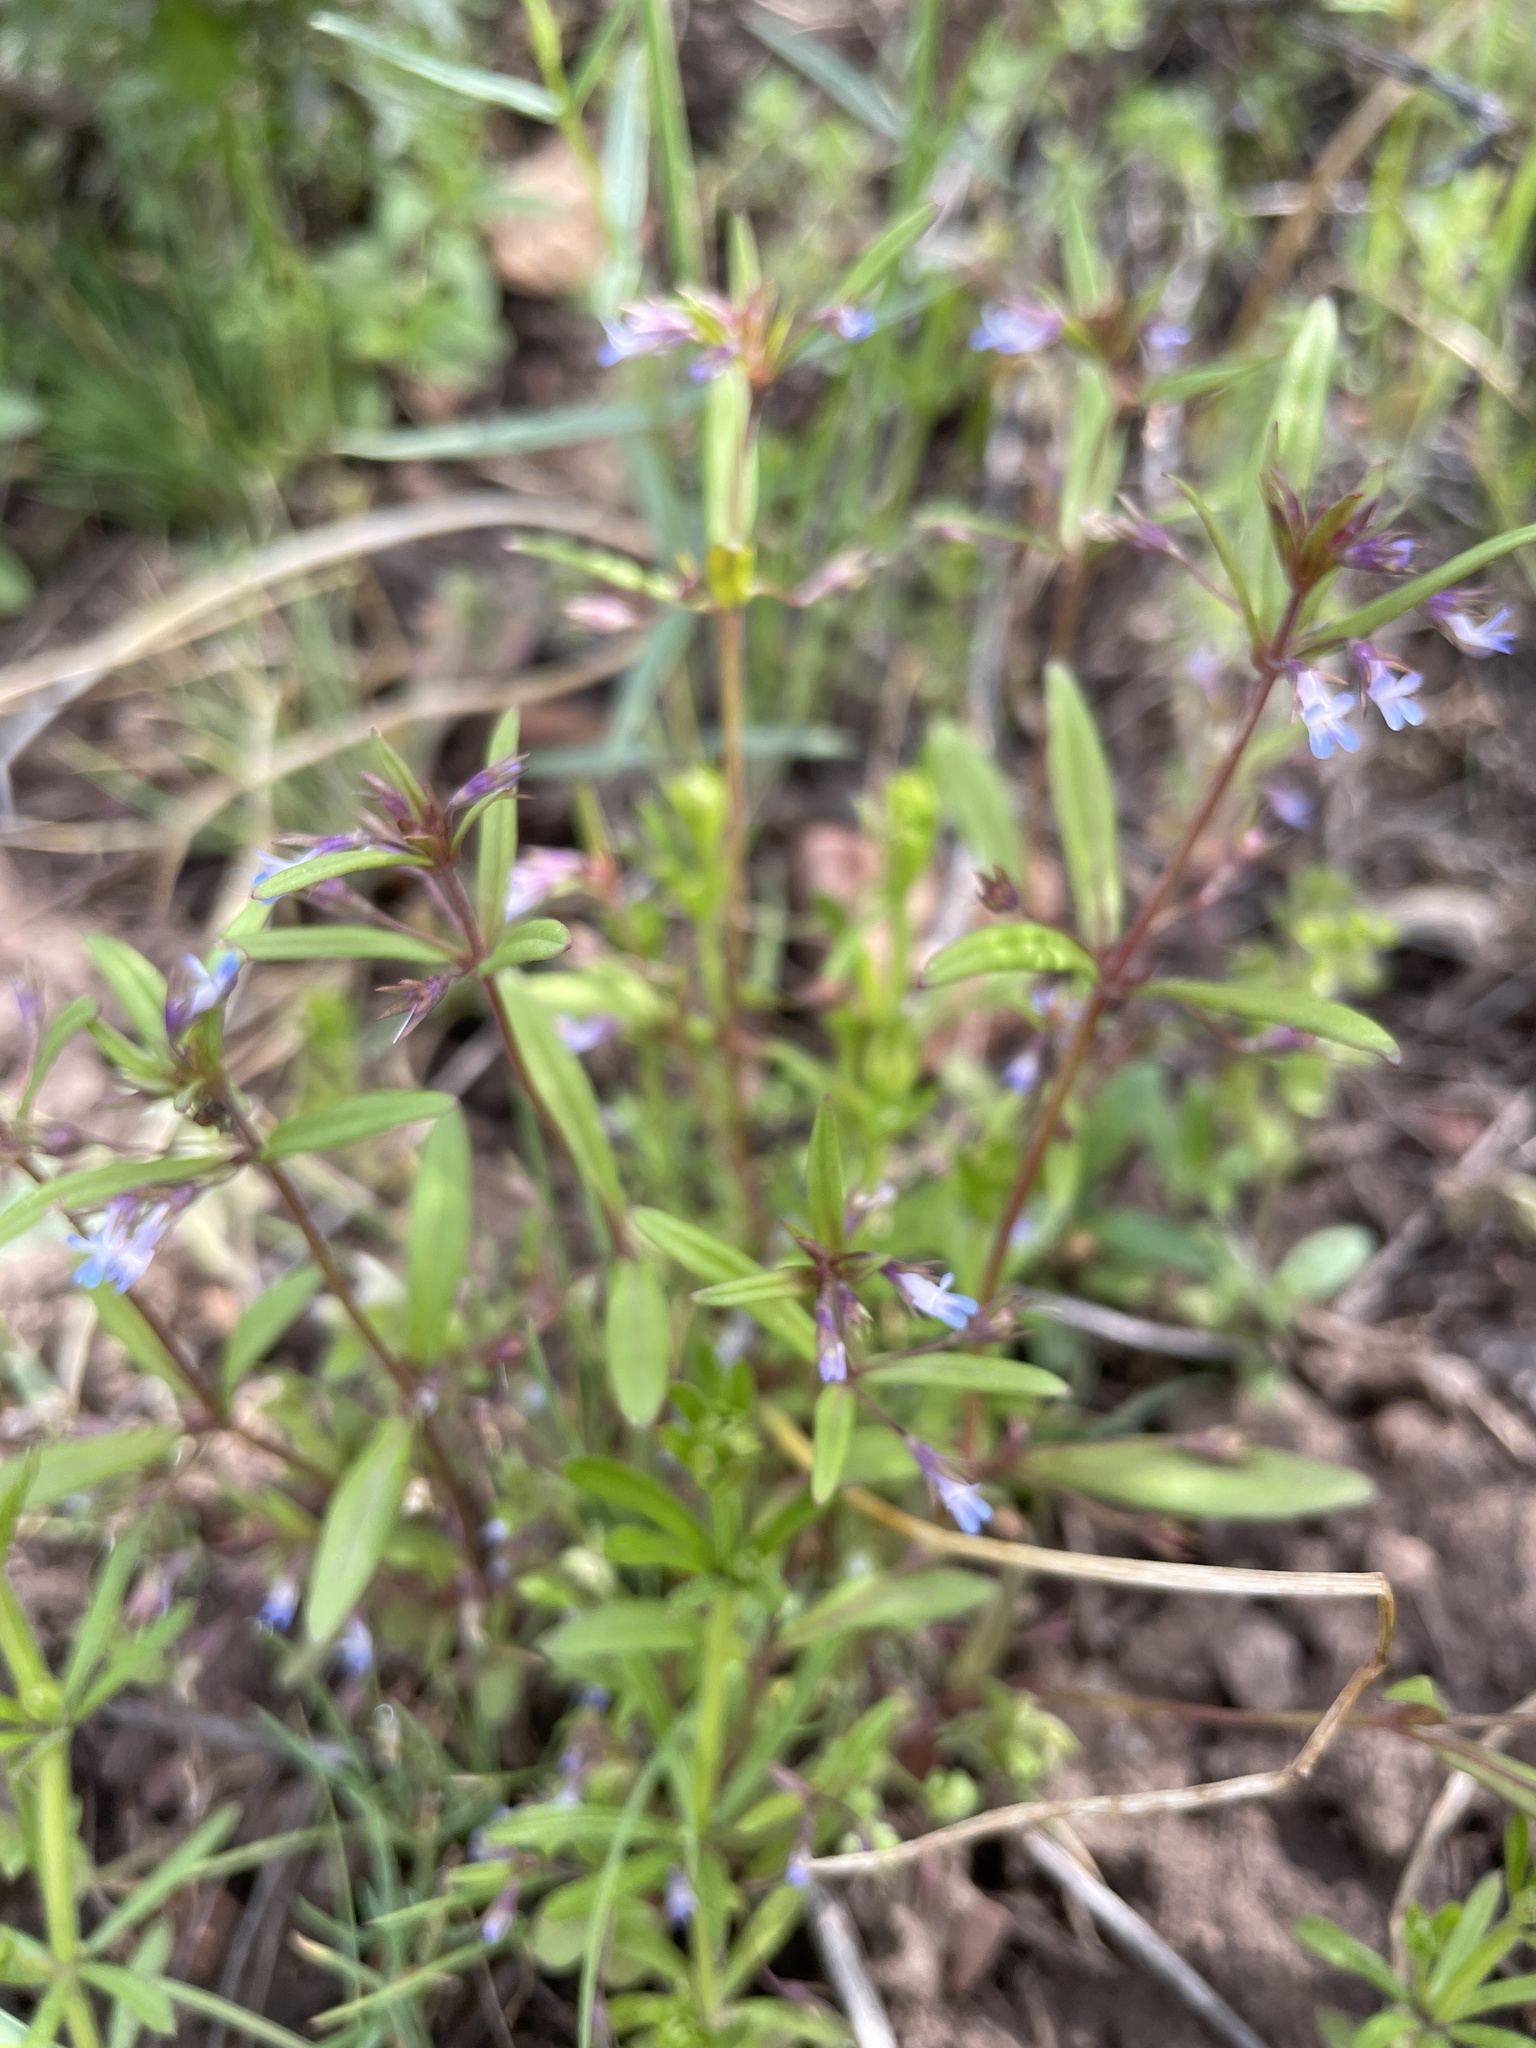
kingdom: Plantae
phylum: Tracheophyta
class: Magnoliopsida
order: Lamiales
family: Plantaginaceae
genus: Collinsia
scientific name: Collinsia parviflora
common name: Blue-lips
